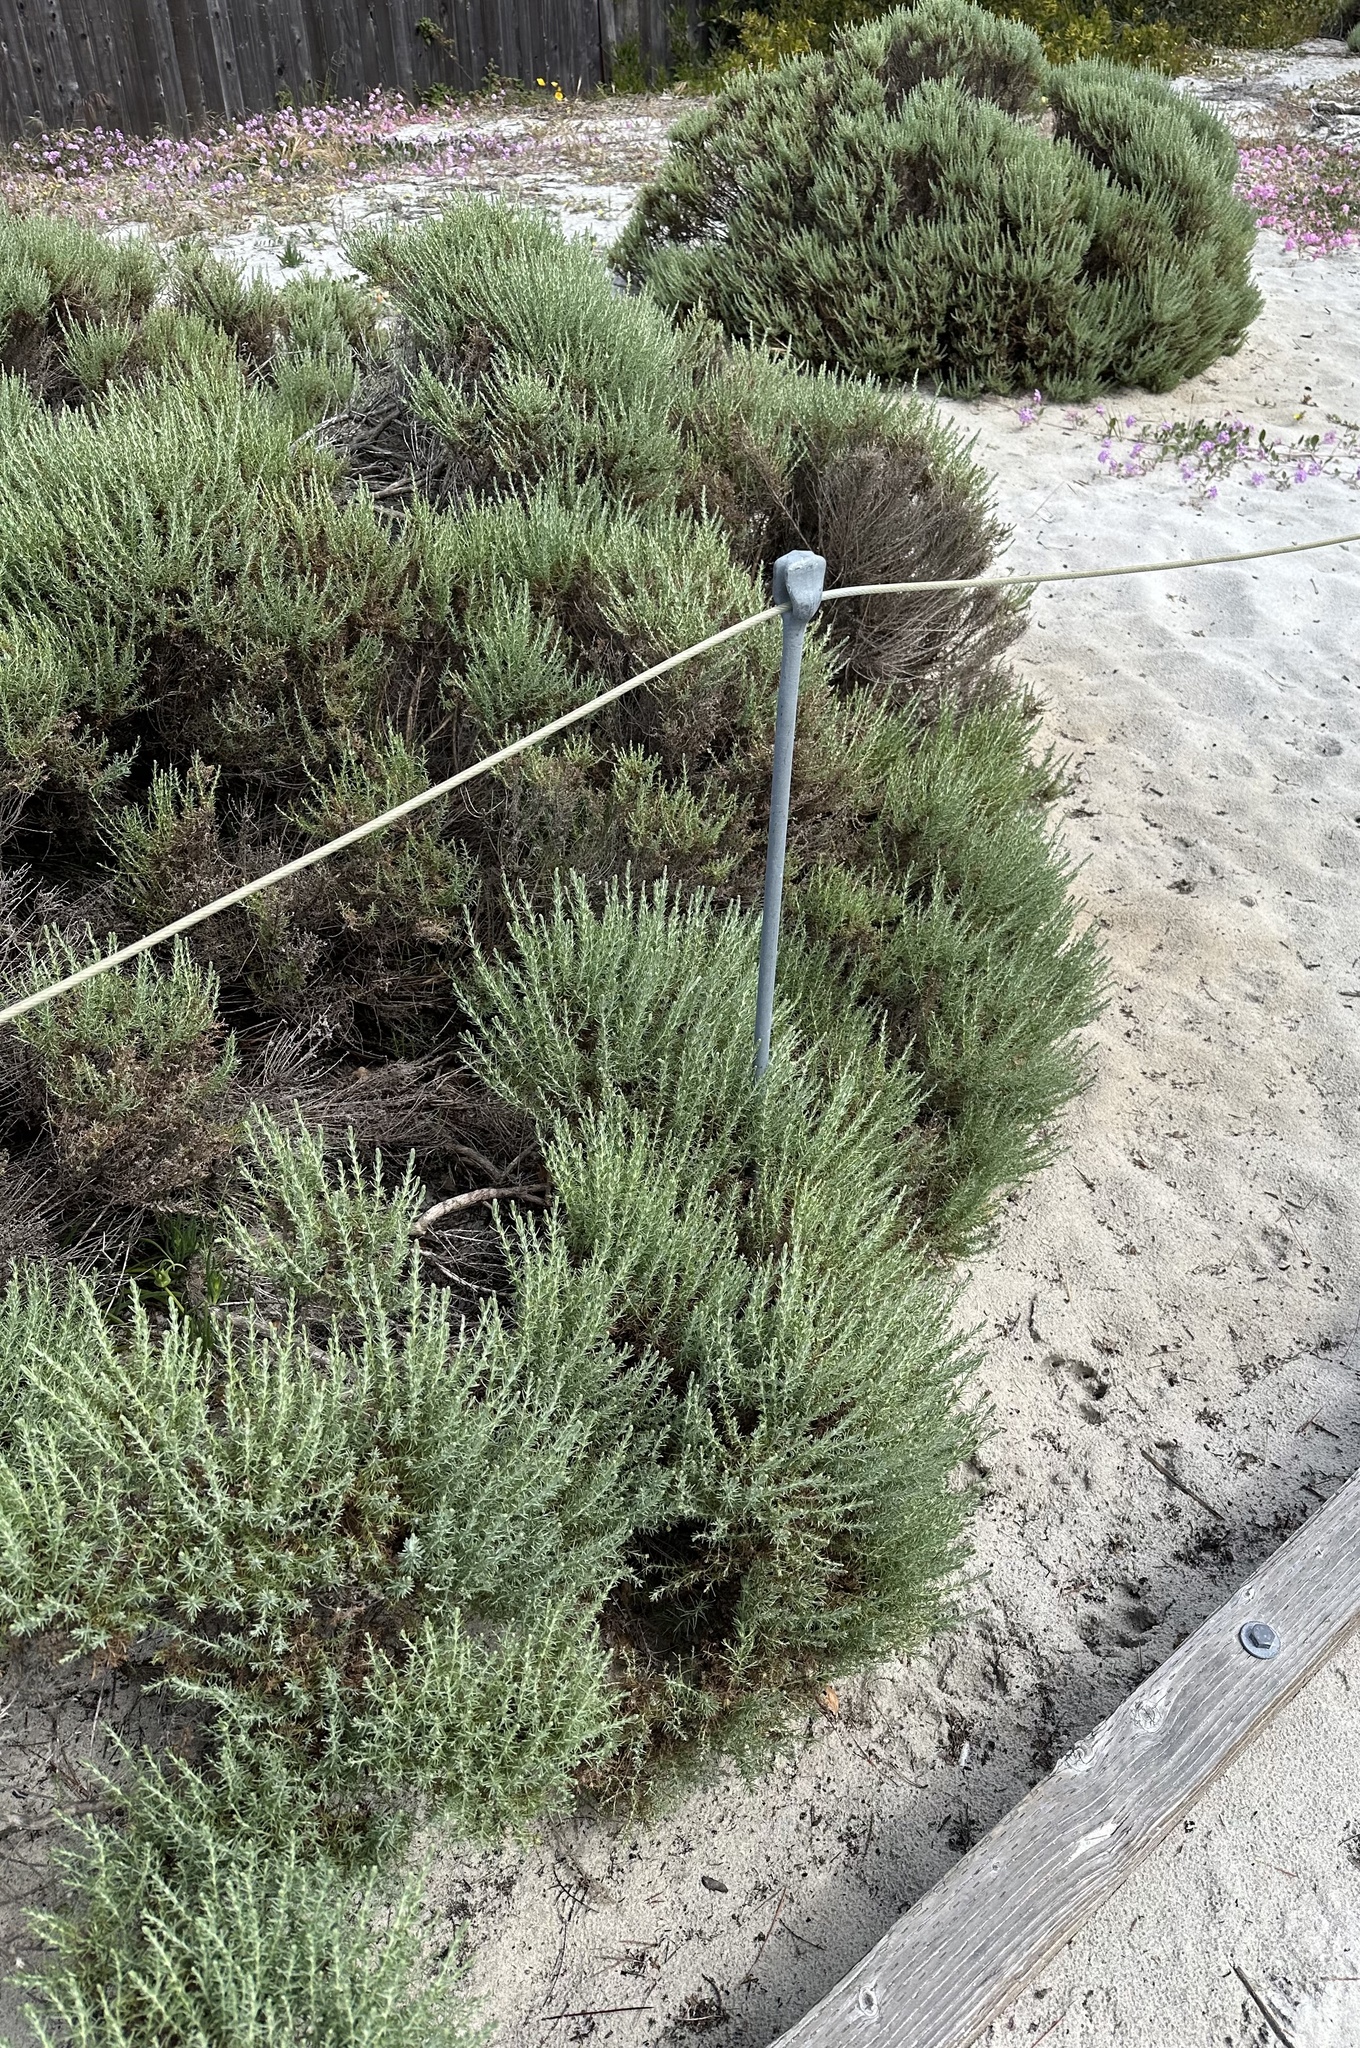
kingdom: Animalia
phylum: Arthropoda
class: Insecta
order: Diptera
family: Cecidomyiidae
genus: Prodiplosis
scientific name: Prodiplosis falcata
